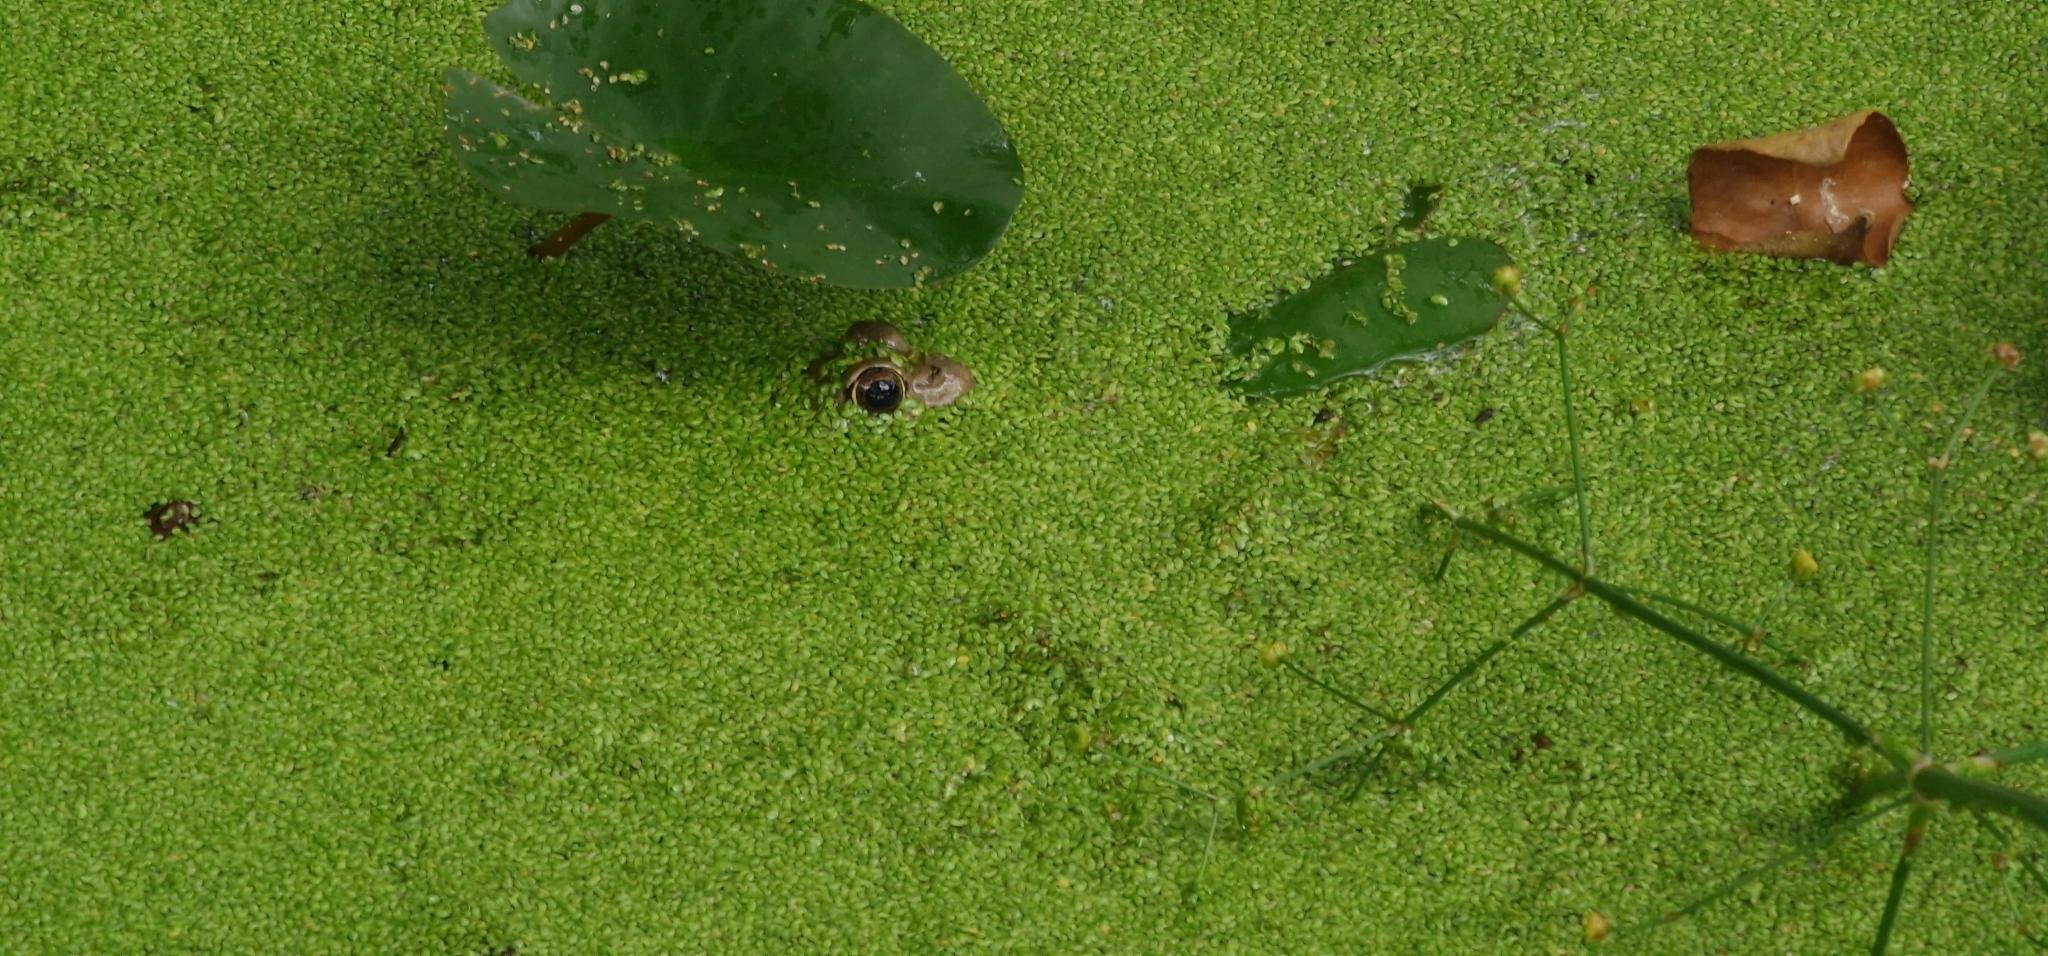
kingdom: Animalia
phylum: Chordata
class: Amphibia
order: Anura
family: Ranidae
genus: Pelophylax
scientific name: Pelophylax perezi
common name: Perez's frog
